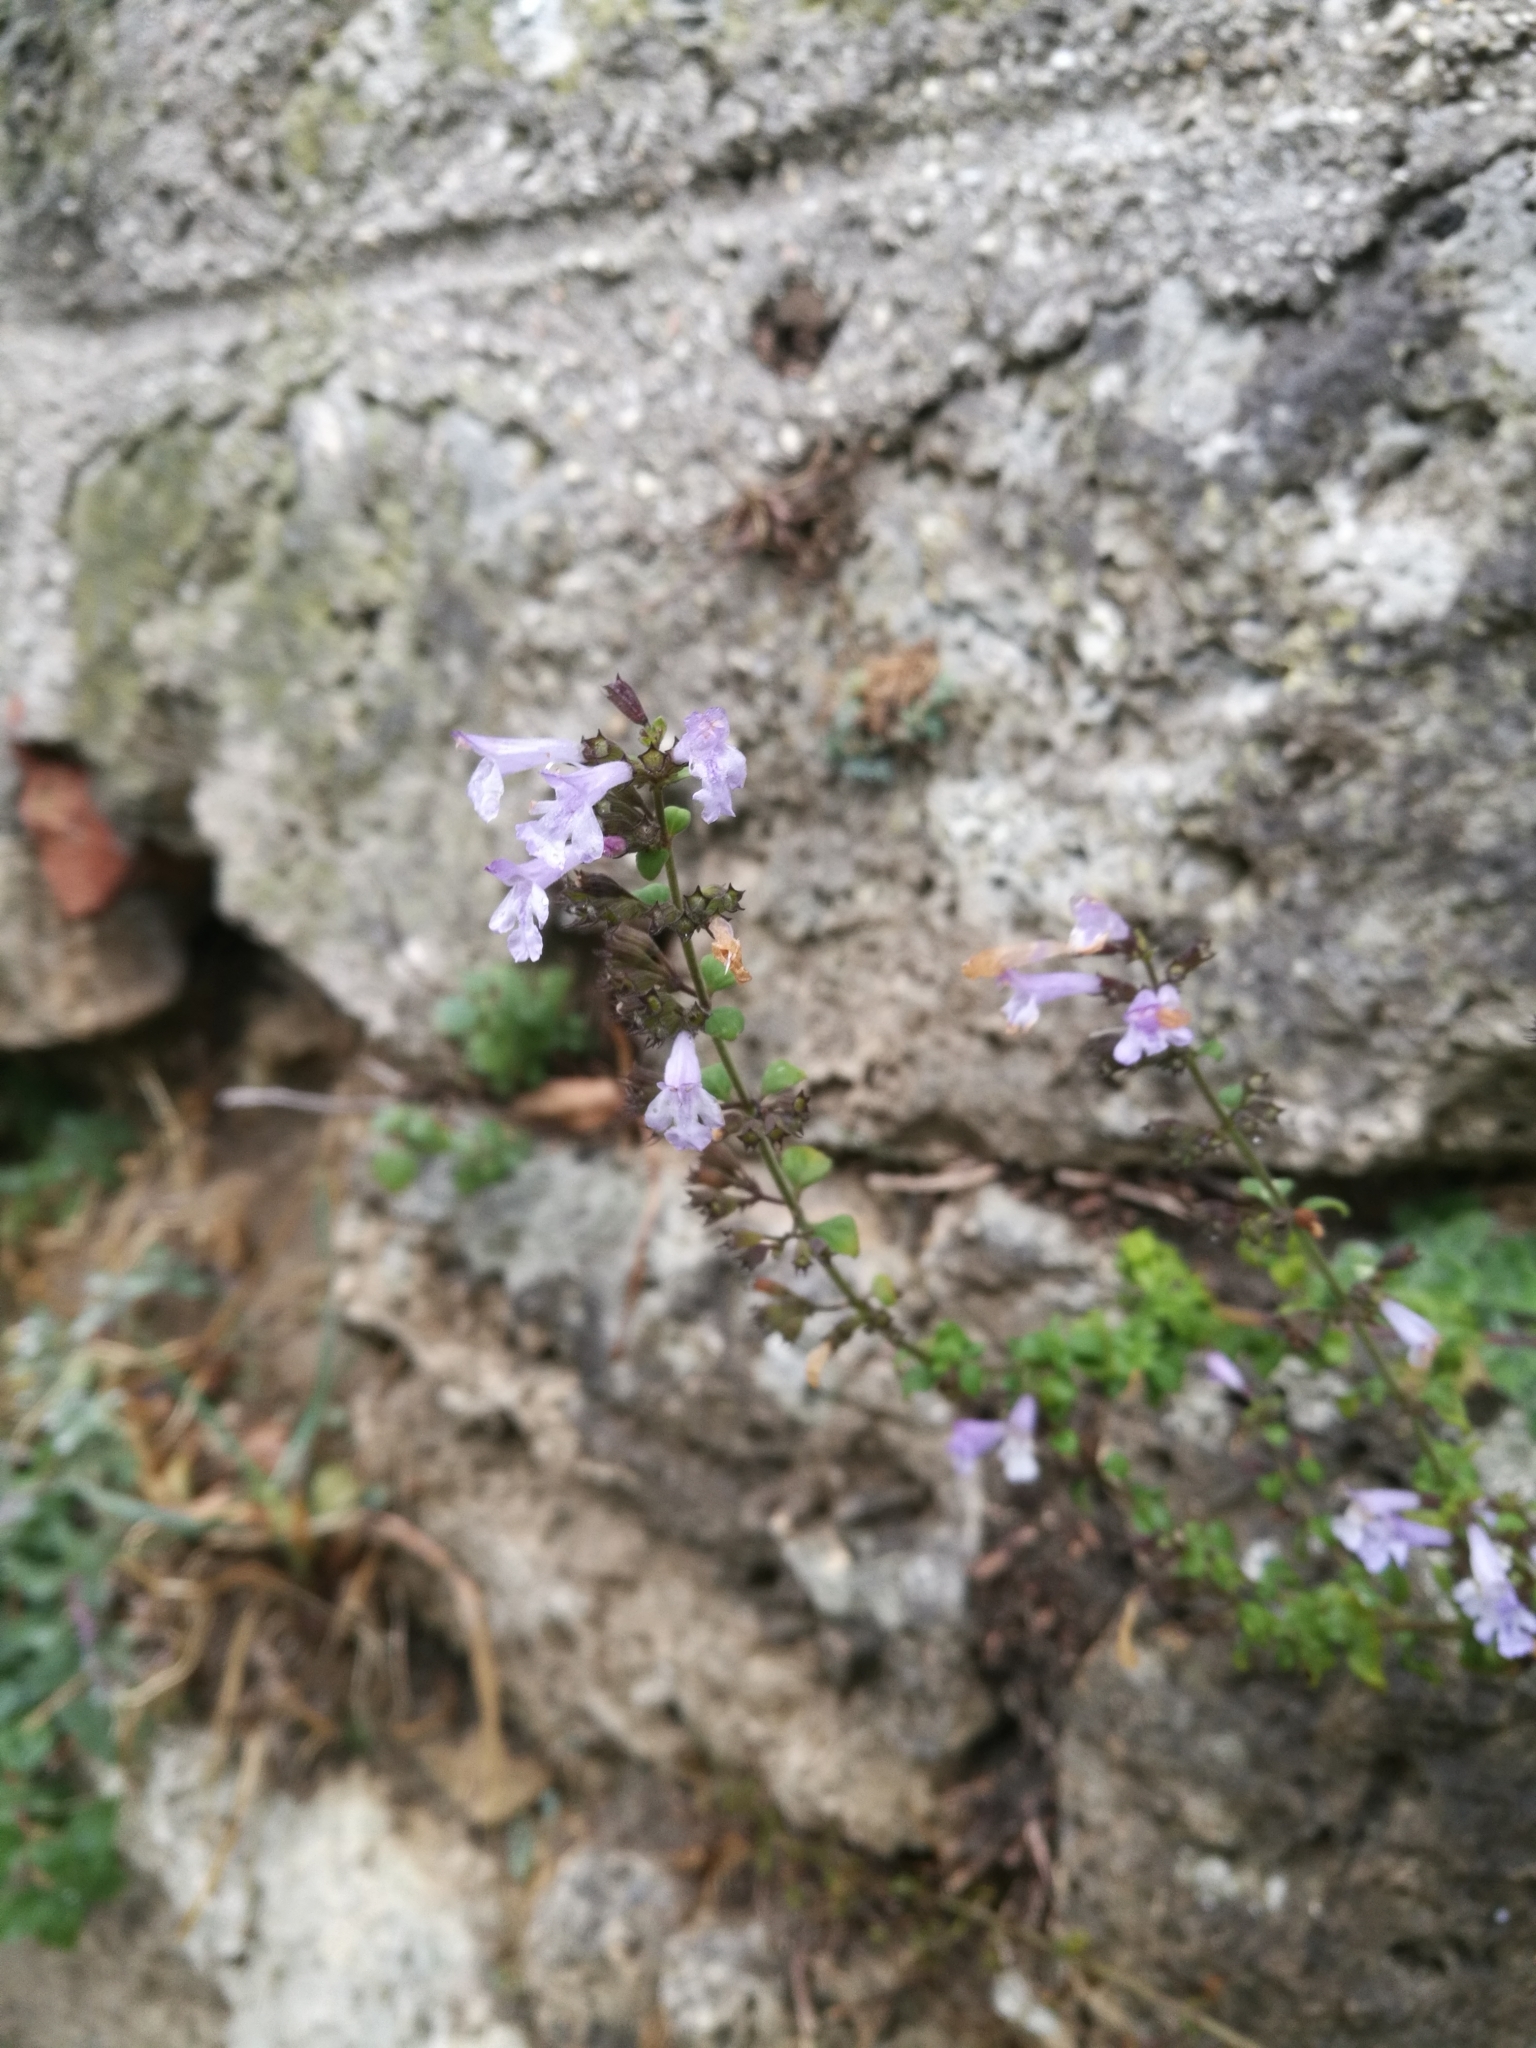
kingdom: Plantae
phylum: Tracheophyta
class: Magnoliopsida
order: Lamiales
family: Lamiaceae
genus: Clinopodium
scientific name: Clinopodium nepeta
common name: Lesser calamint
